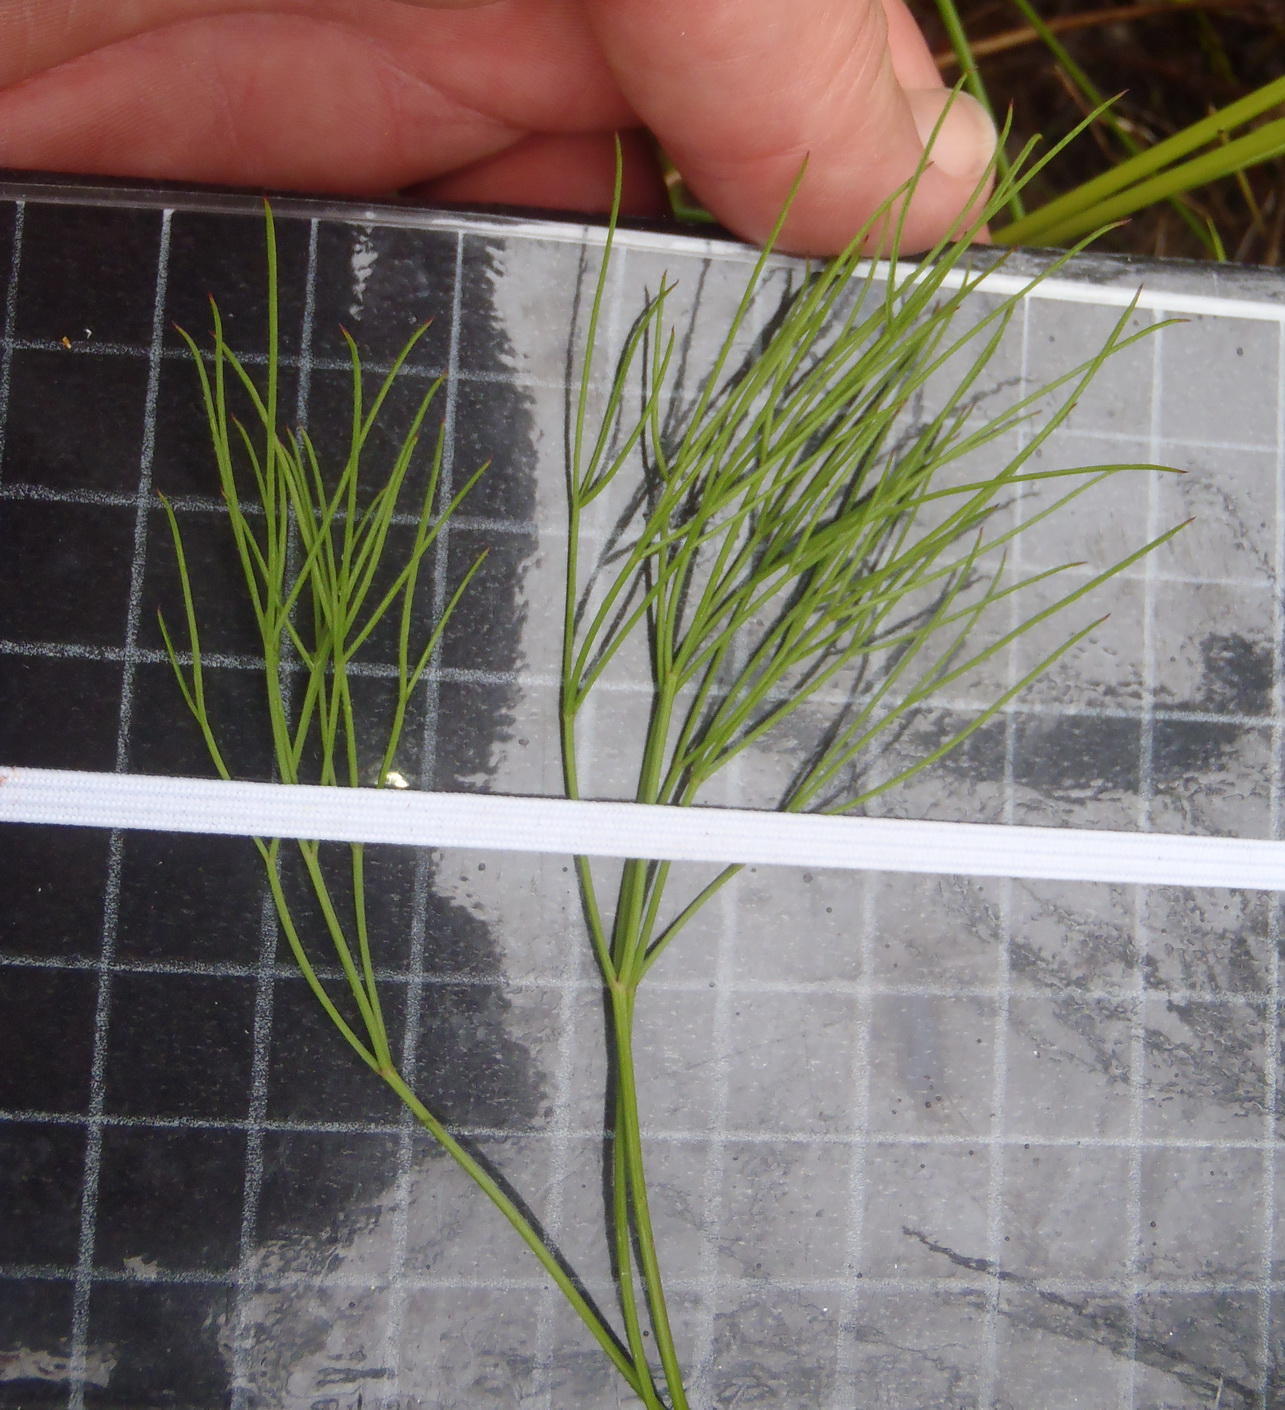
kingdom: Plantae
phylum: Tracheophyta
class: Magnoliopsida
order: Apiales
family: Apiaceae
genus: Nanobubon
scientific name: Nanobubon hypogaeum
